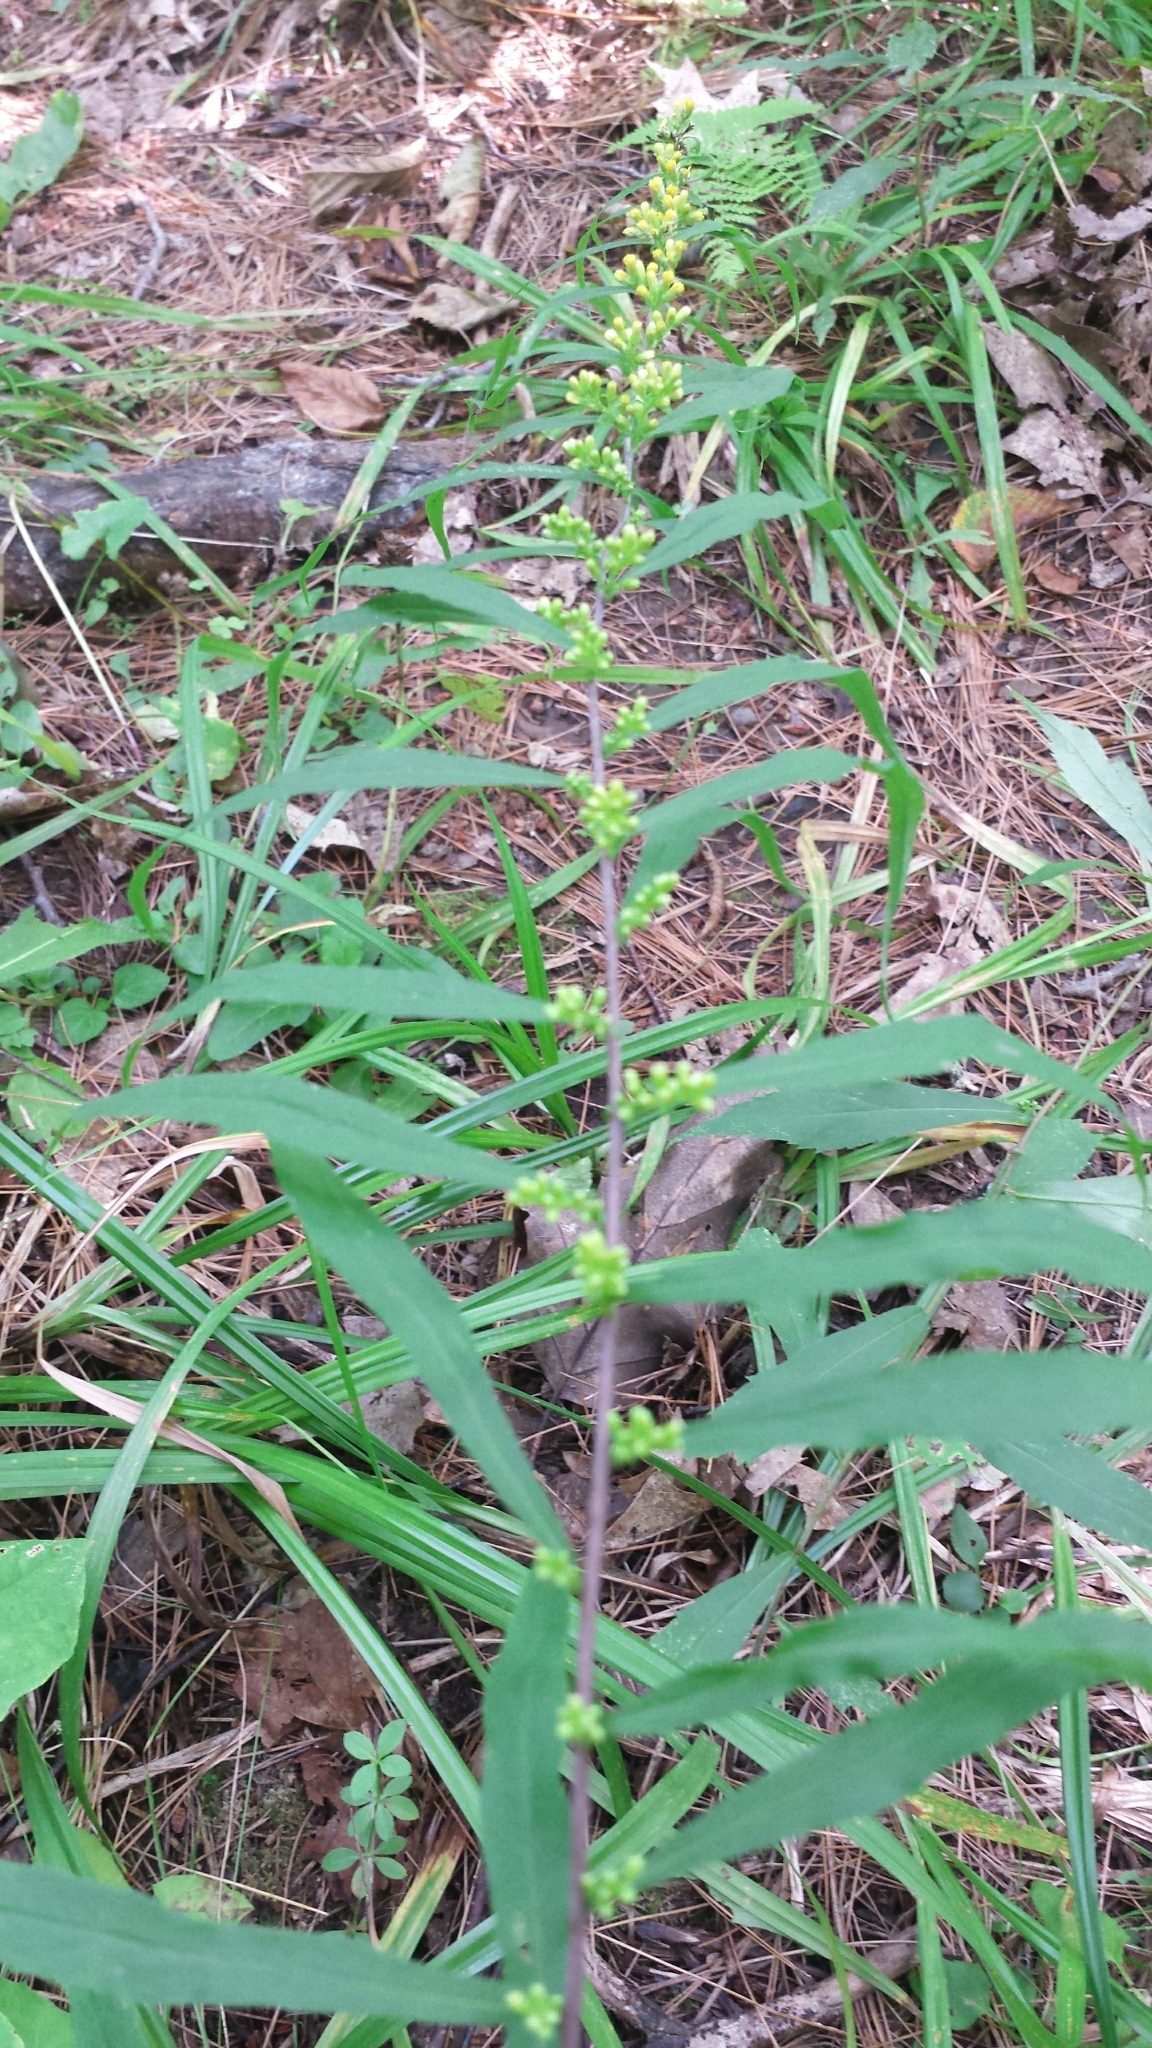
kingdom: Plantae
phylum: Tracheophyta
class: Magnoliopsida
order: Asterales
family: Asteraceae
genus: Solidago
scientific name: Solidago caesia
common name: Woodland goldenrod
